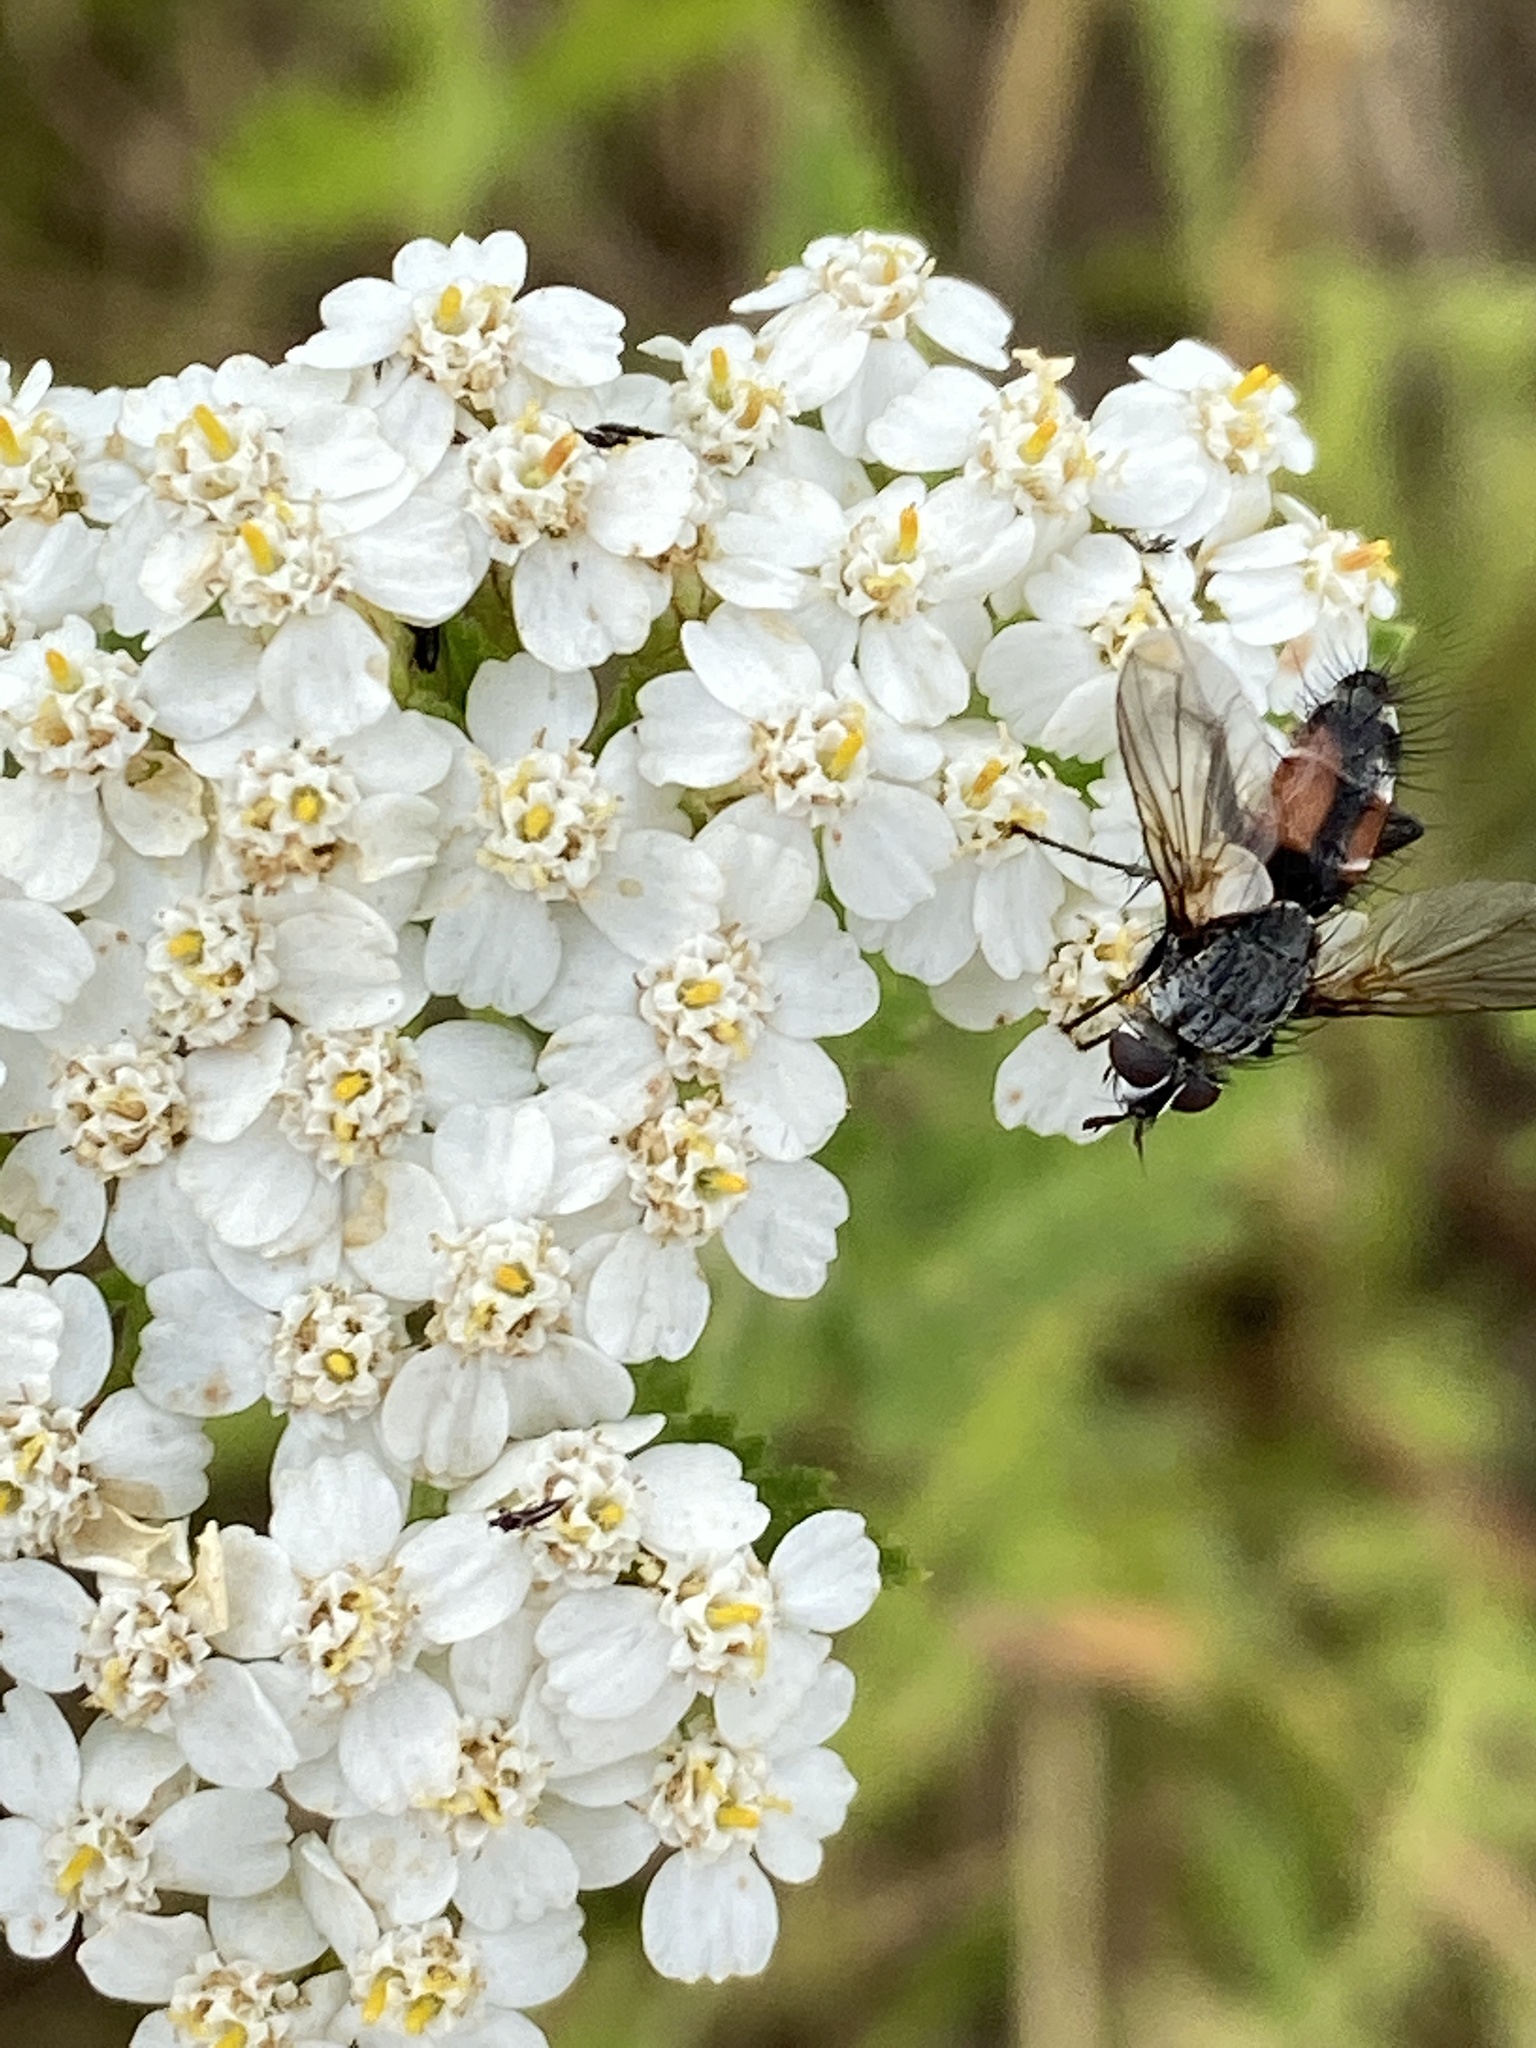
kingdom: Animalia
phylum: Arthropoda
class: Insecta
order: Diptera
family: Tachinidae
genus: Eriothrix
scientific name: Eriothrix rufomaculatus
